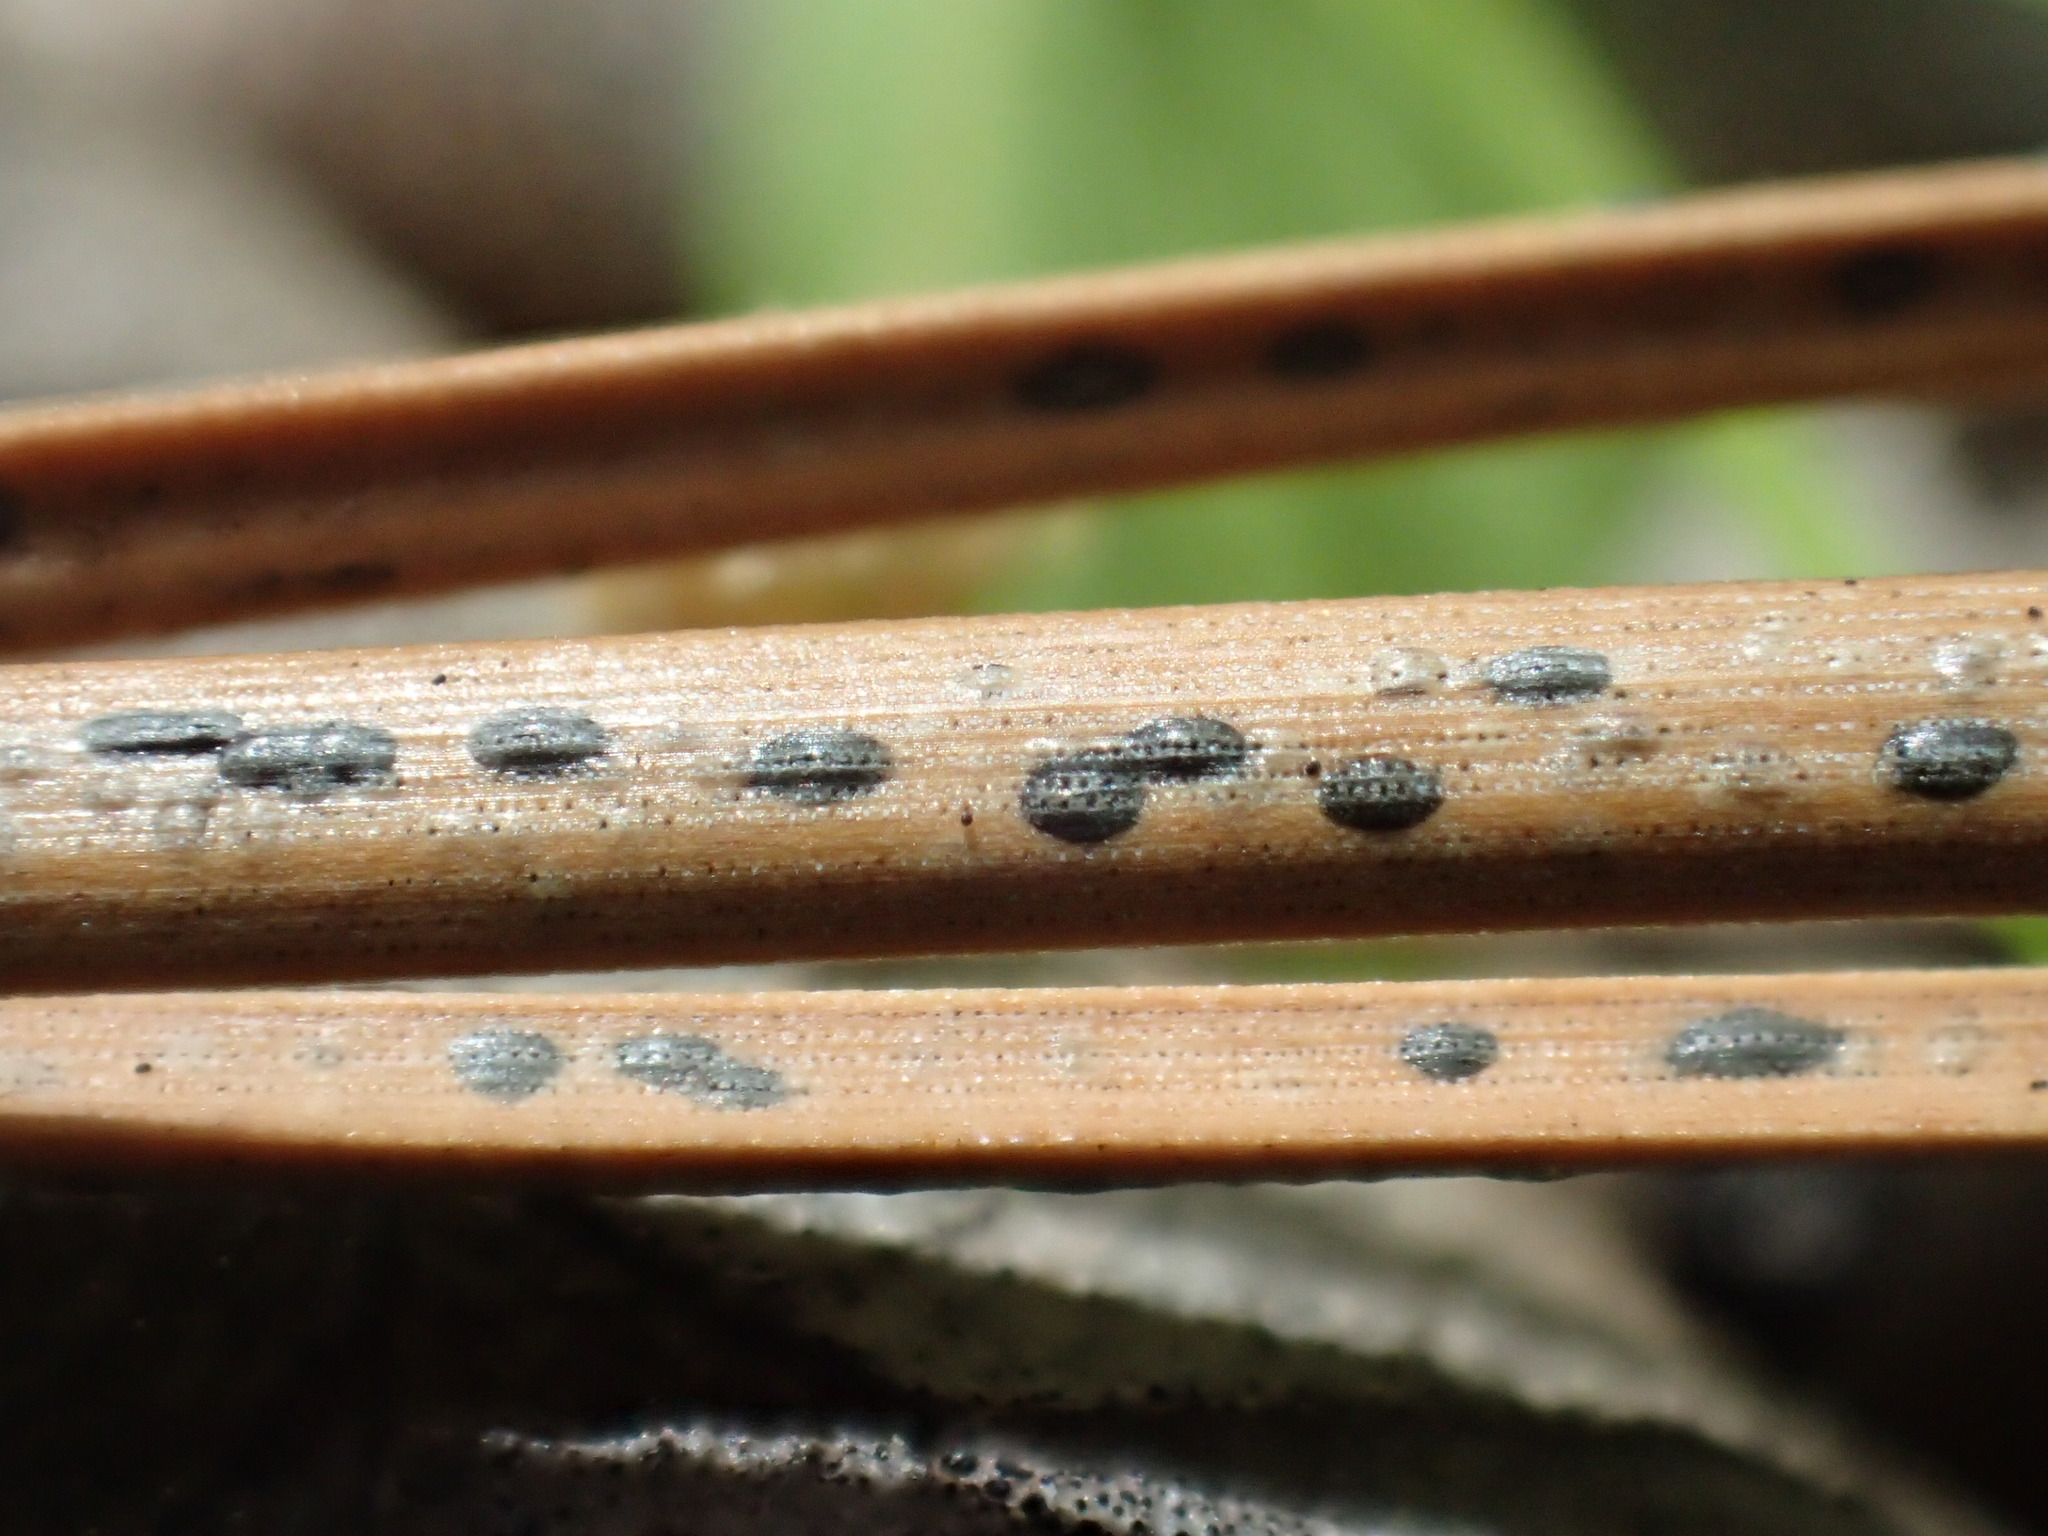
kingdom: Fungi
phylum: Ascomycota
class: Leotiomycetes
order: Rhytismatales
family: Rhytismataceae
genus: Lophodermium
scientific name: Lophodermium pinastri
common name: Pine needle split
